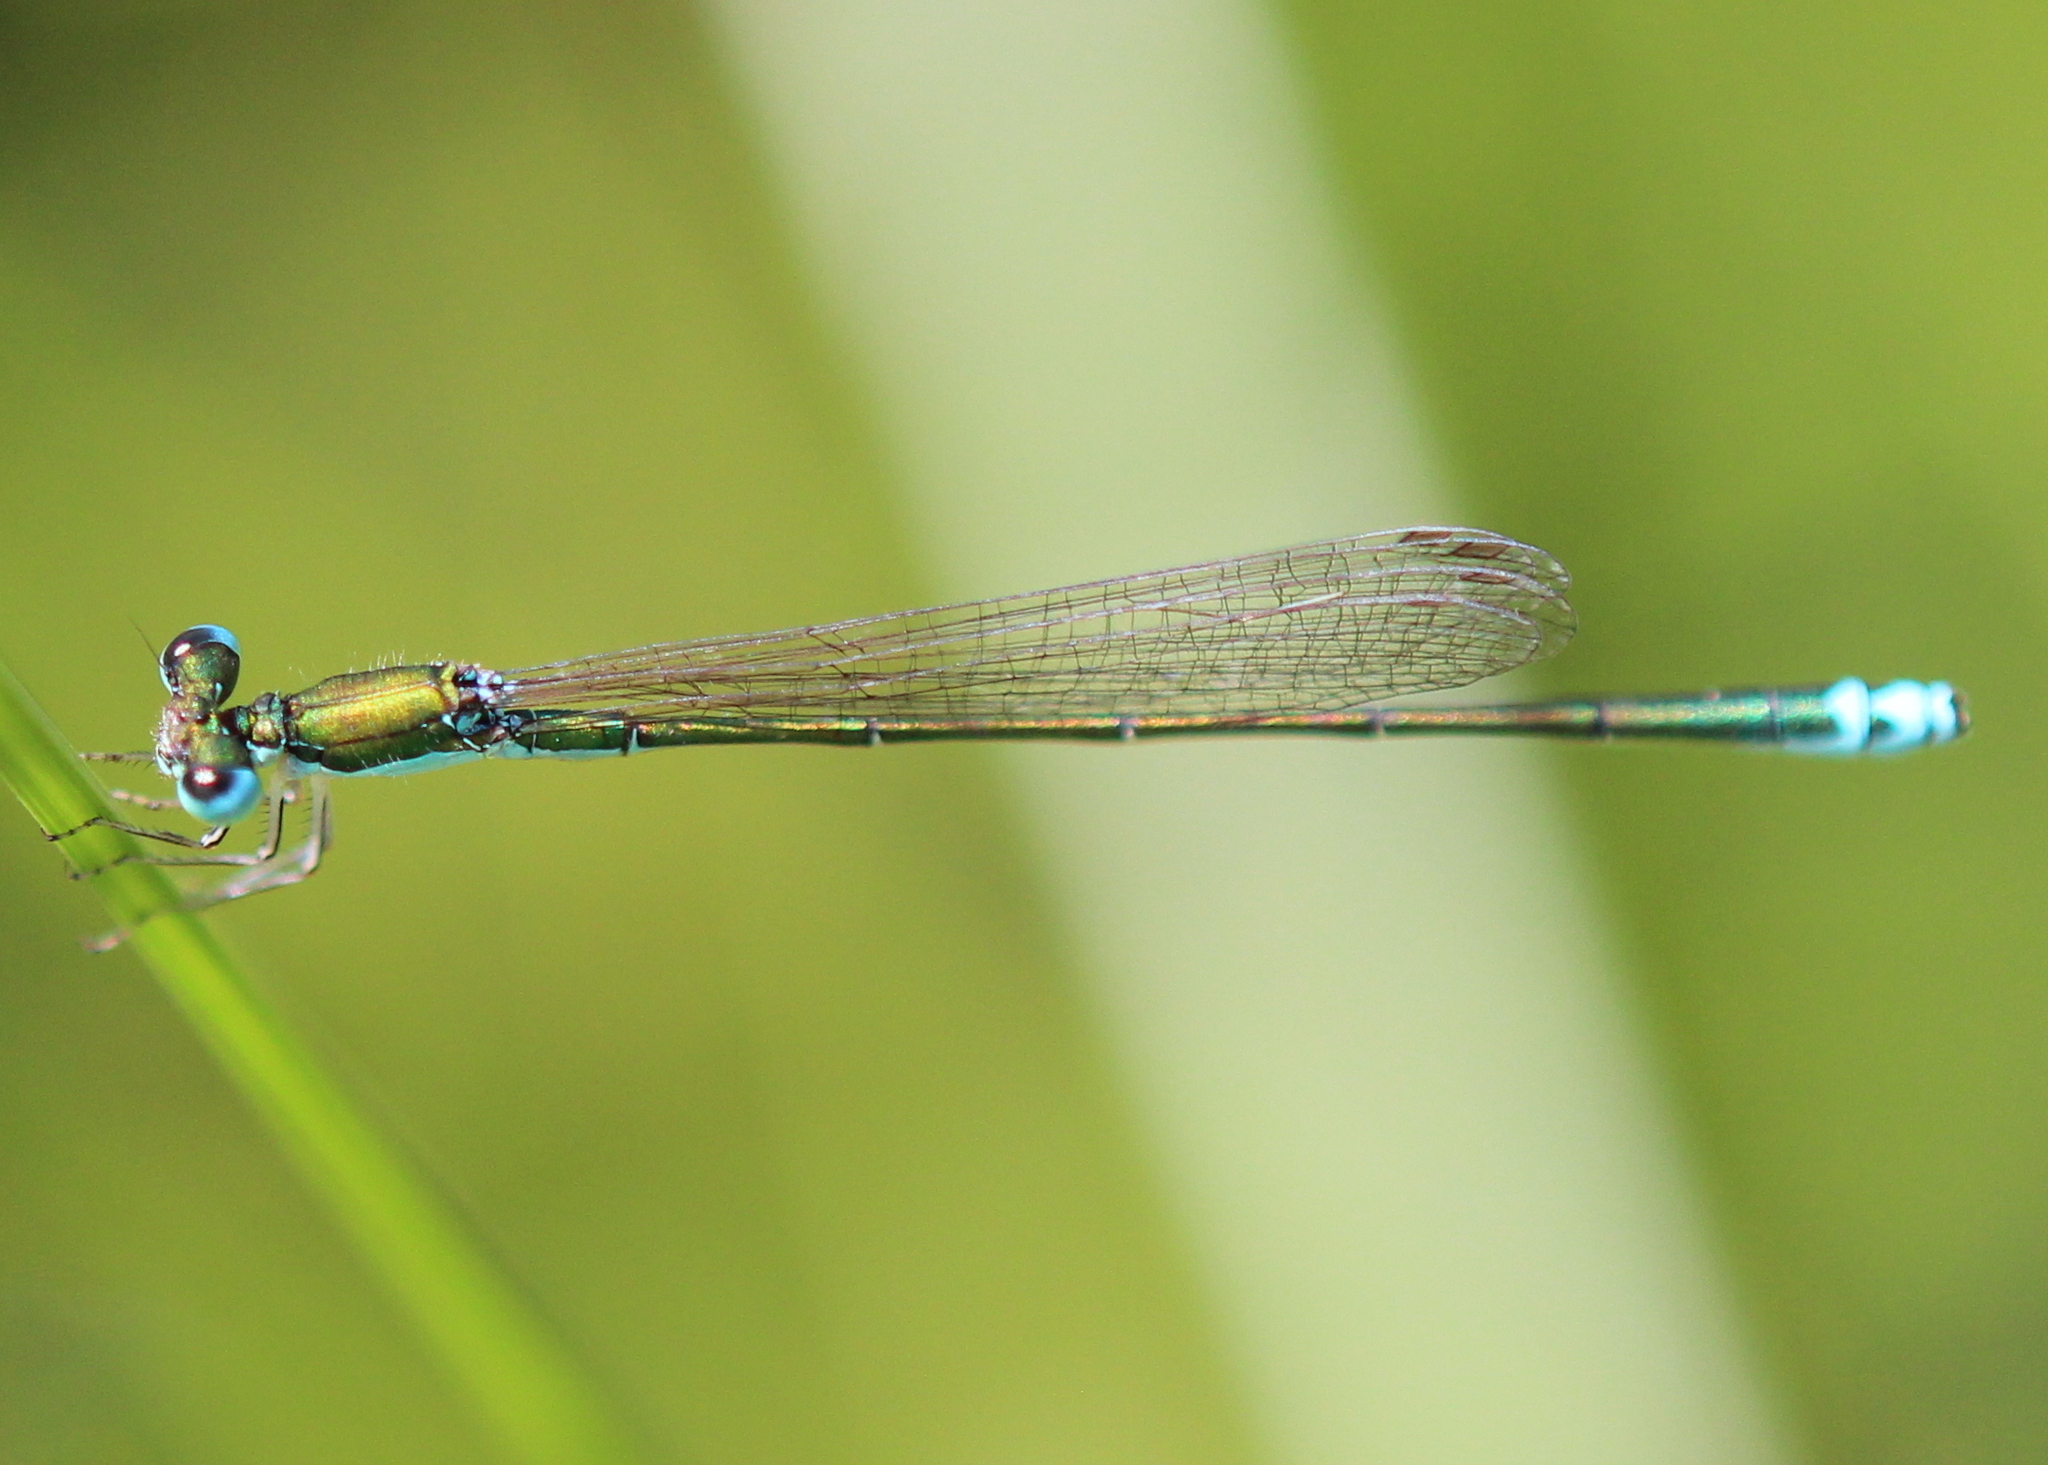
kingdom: Animalia
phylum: Arthropoda
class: Insecta
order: Odonata
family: Coenagrionidae
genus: Nehalennia
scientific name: Nehalennia irene
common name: Sedge sprite
